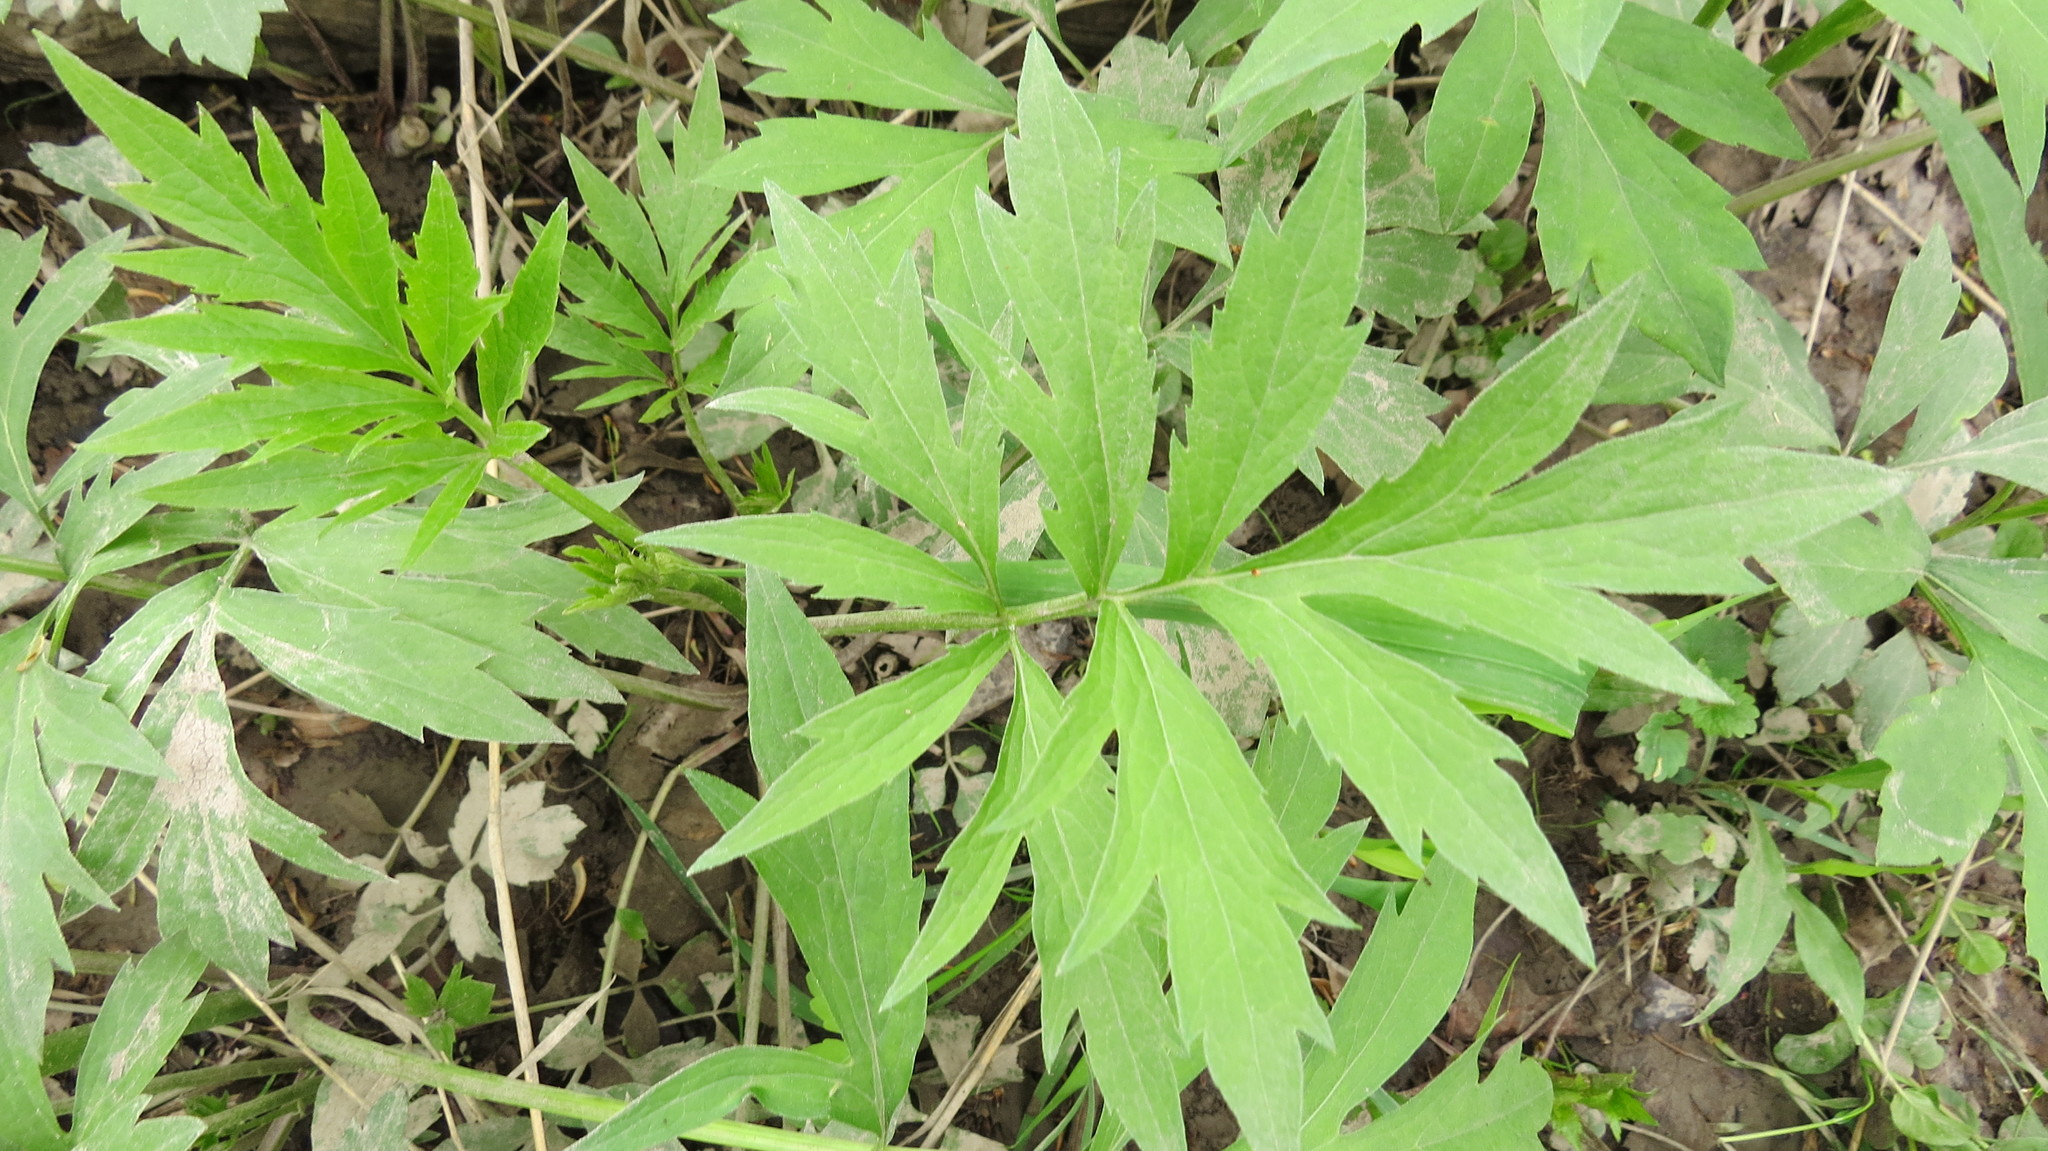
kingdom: Plantae
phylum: Tracheophyta
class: Magnoliopsida
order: Asterales
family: Asteraceae
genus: Rudbeckia
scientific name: Rudbeckia laciniata
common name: Coneflower
